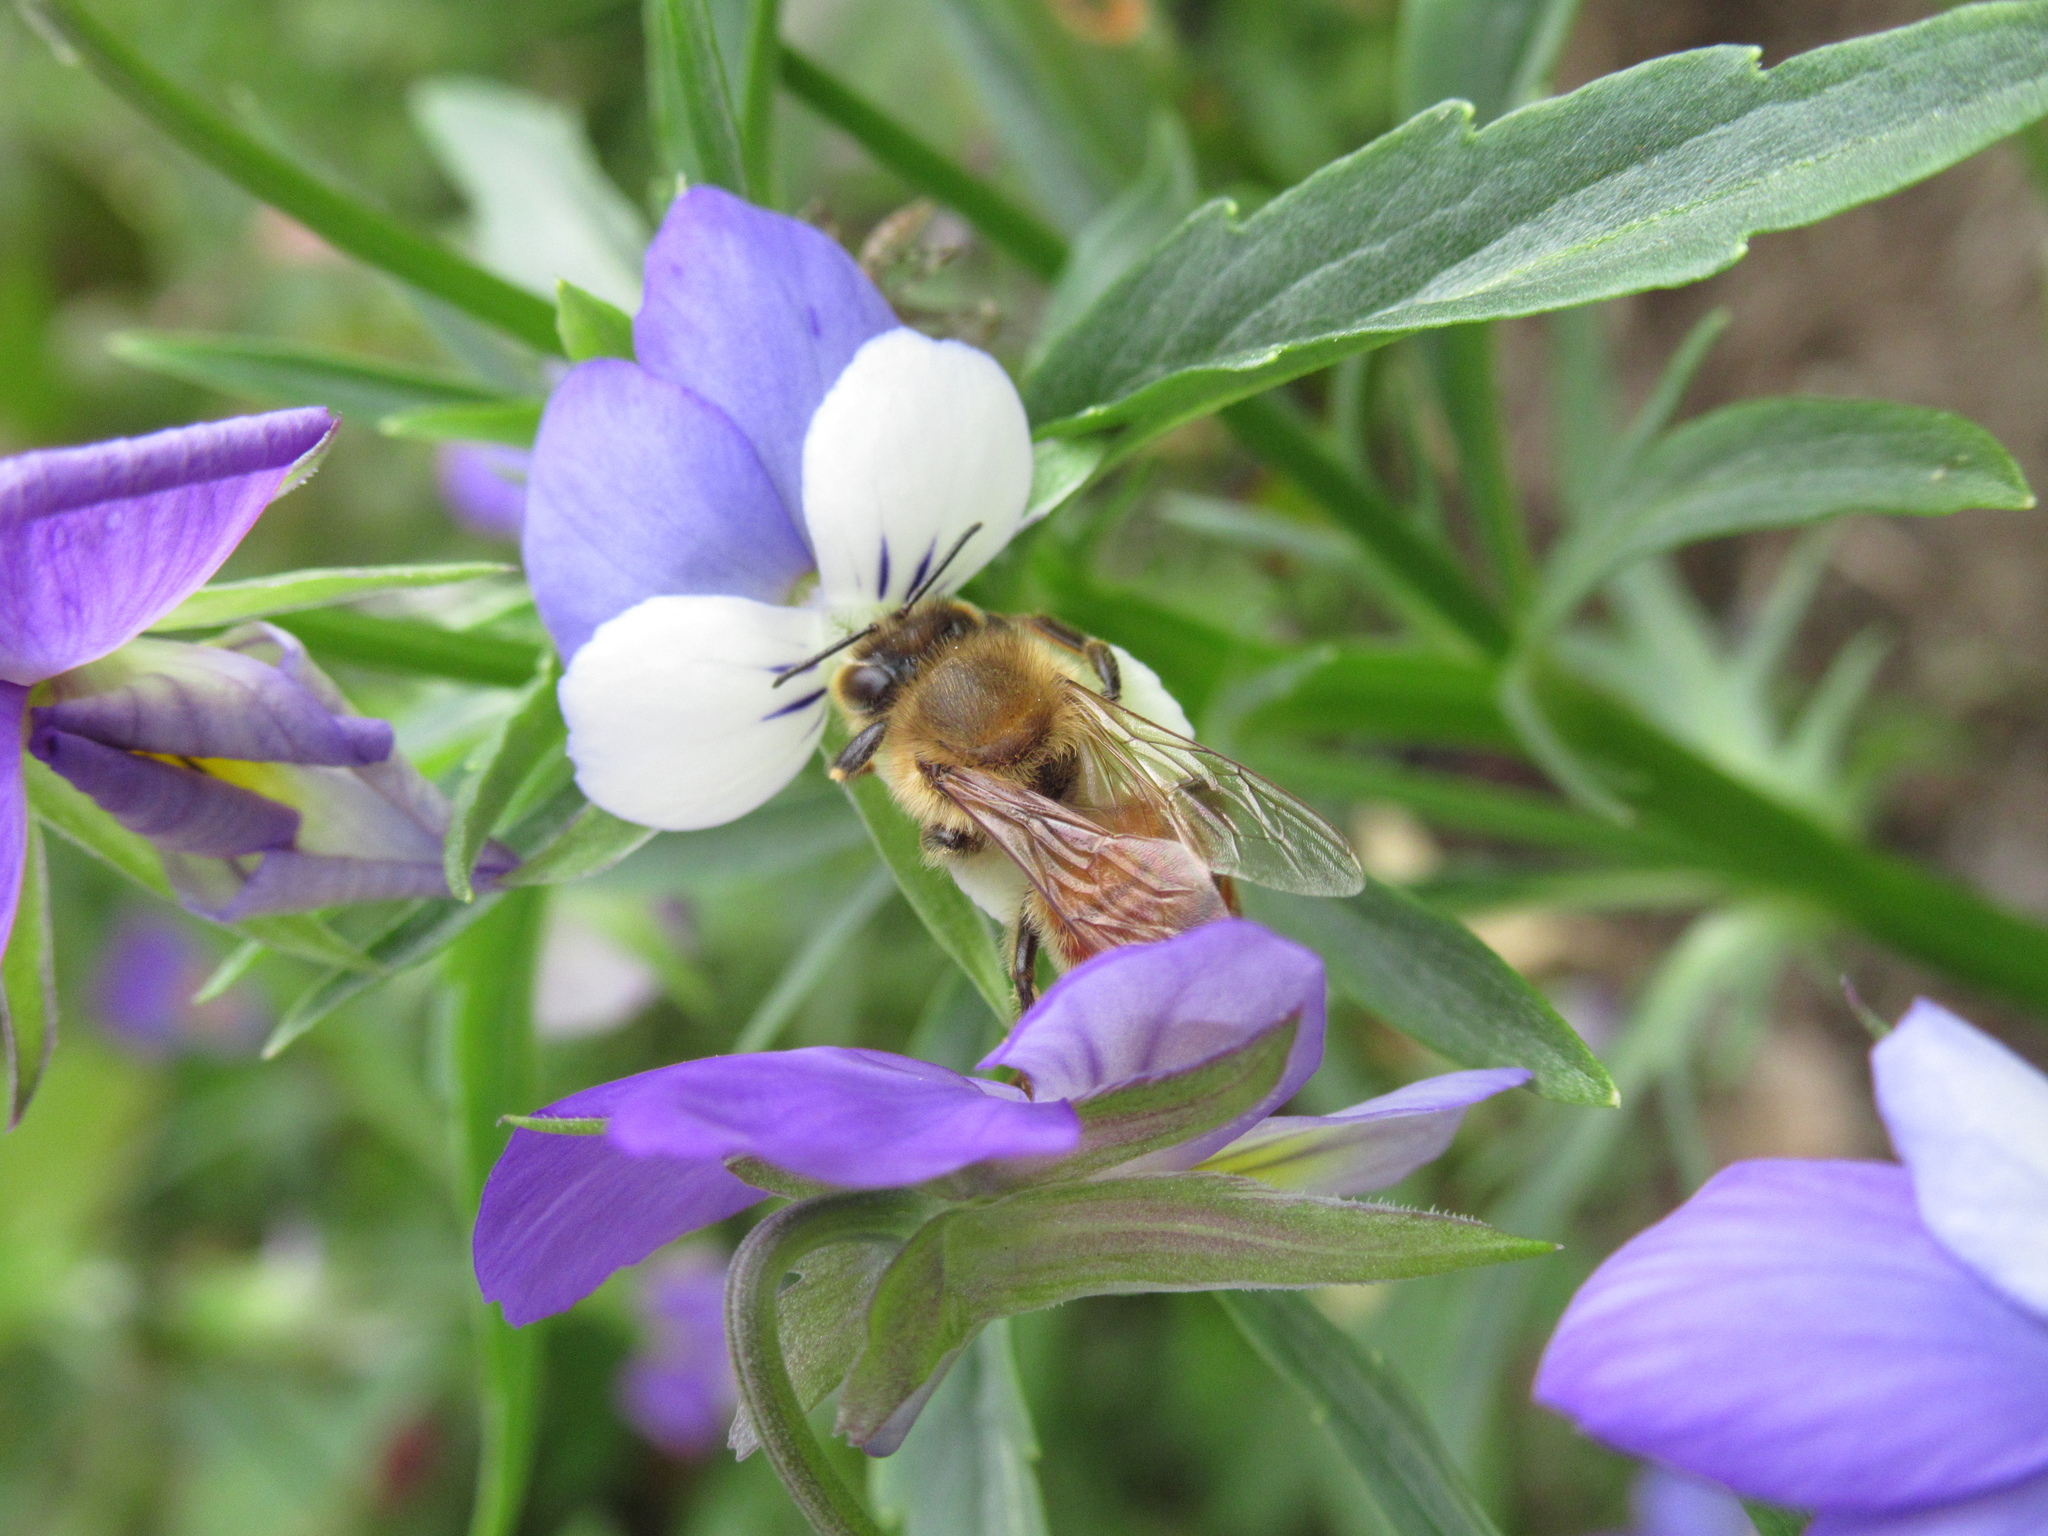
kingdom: Animalia
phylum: Arthropoda
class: Insecta
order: Hymenoptera
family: Apidae
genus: Apis
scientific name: Apis mellifera
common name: Honey bee
